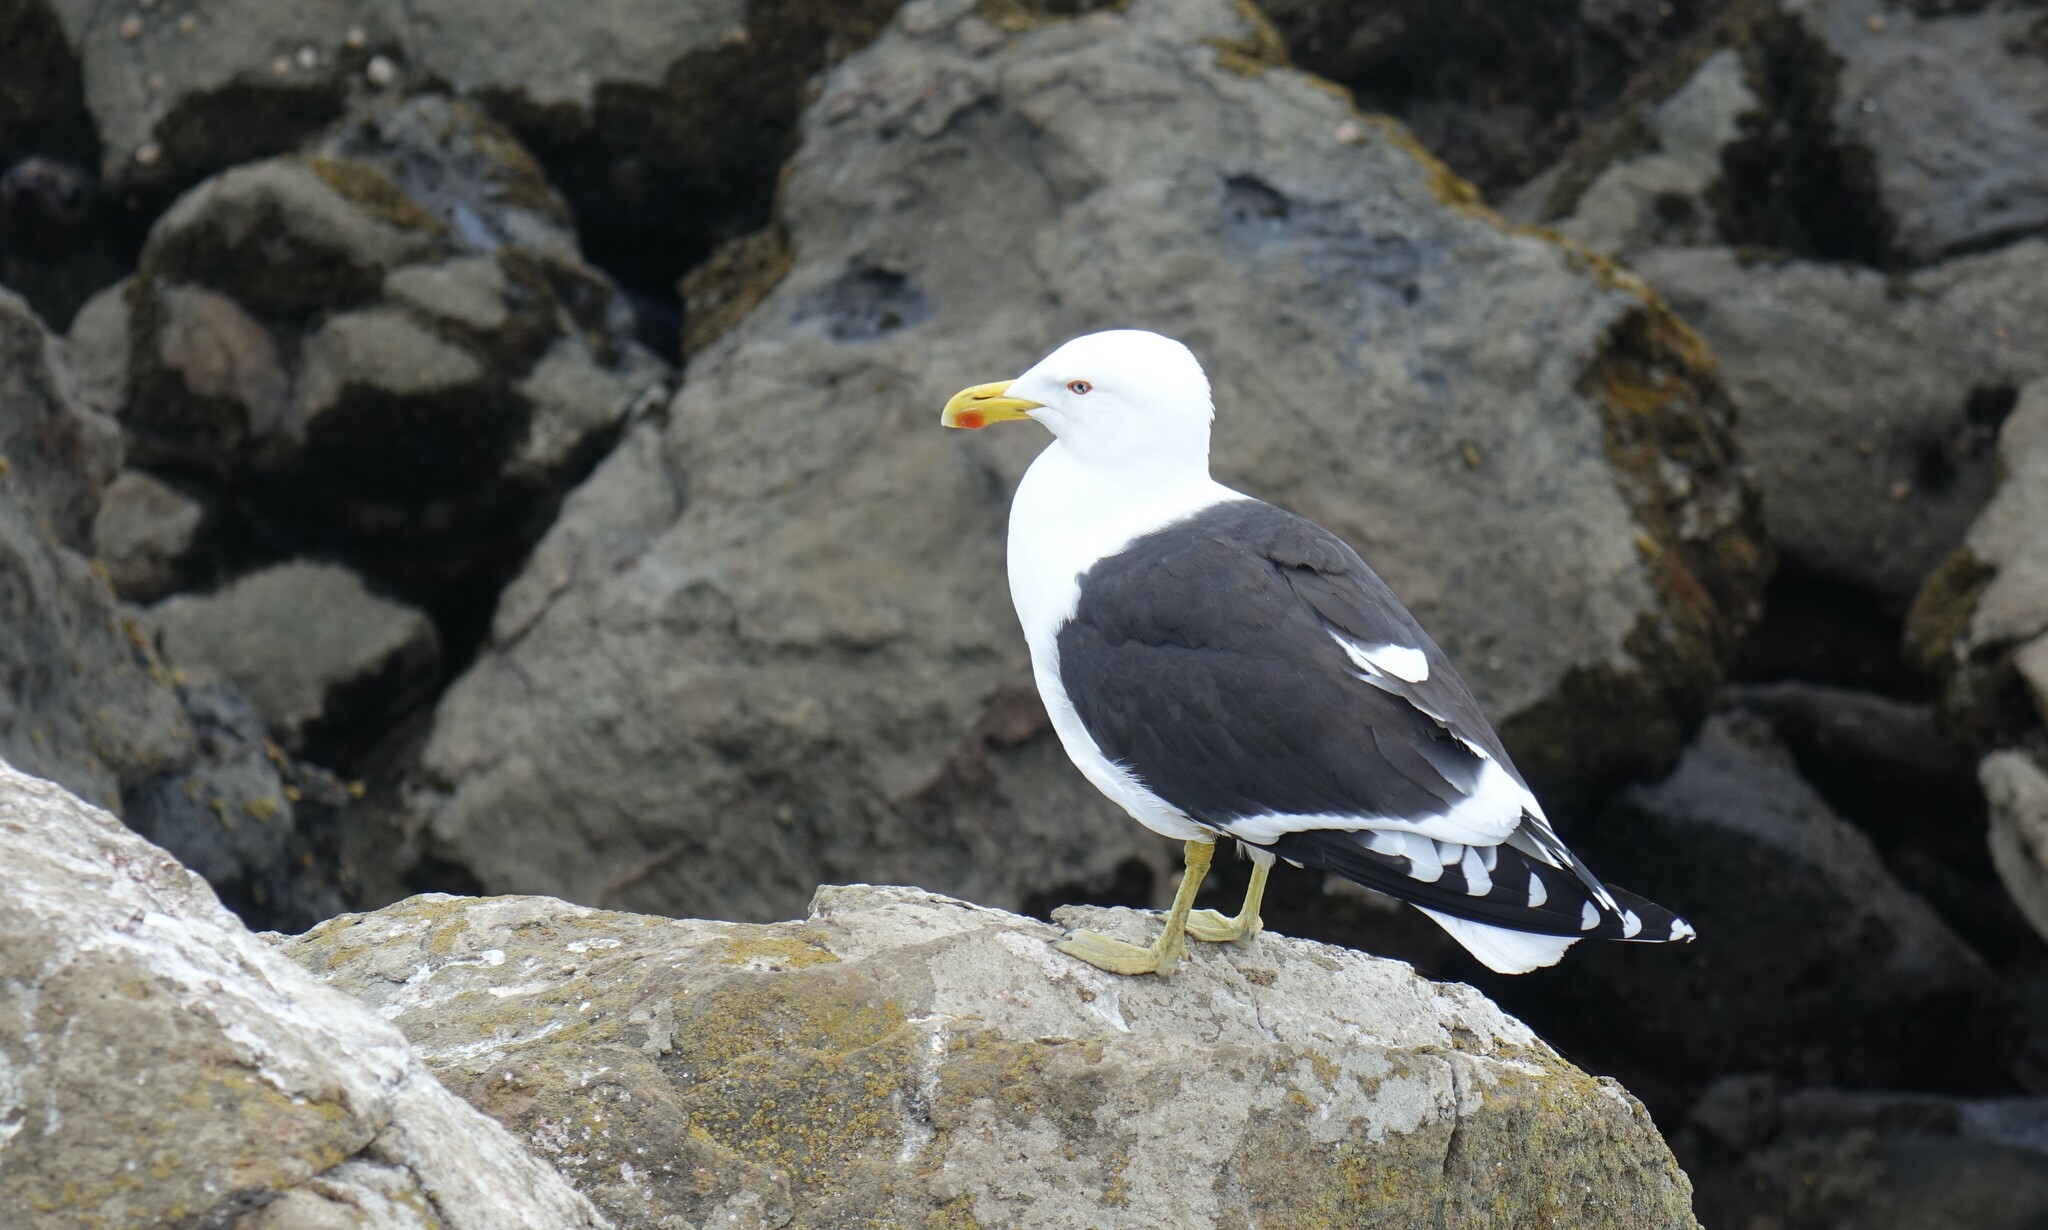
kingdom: Animalia
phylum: Chordata
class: Aves
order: Charadriiformes
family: Laridae
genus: Larus
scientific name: Larus dominicanus
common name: Kelp gull
